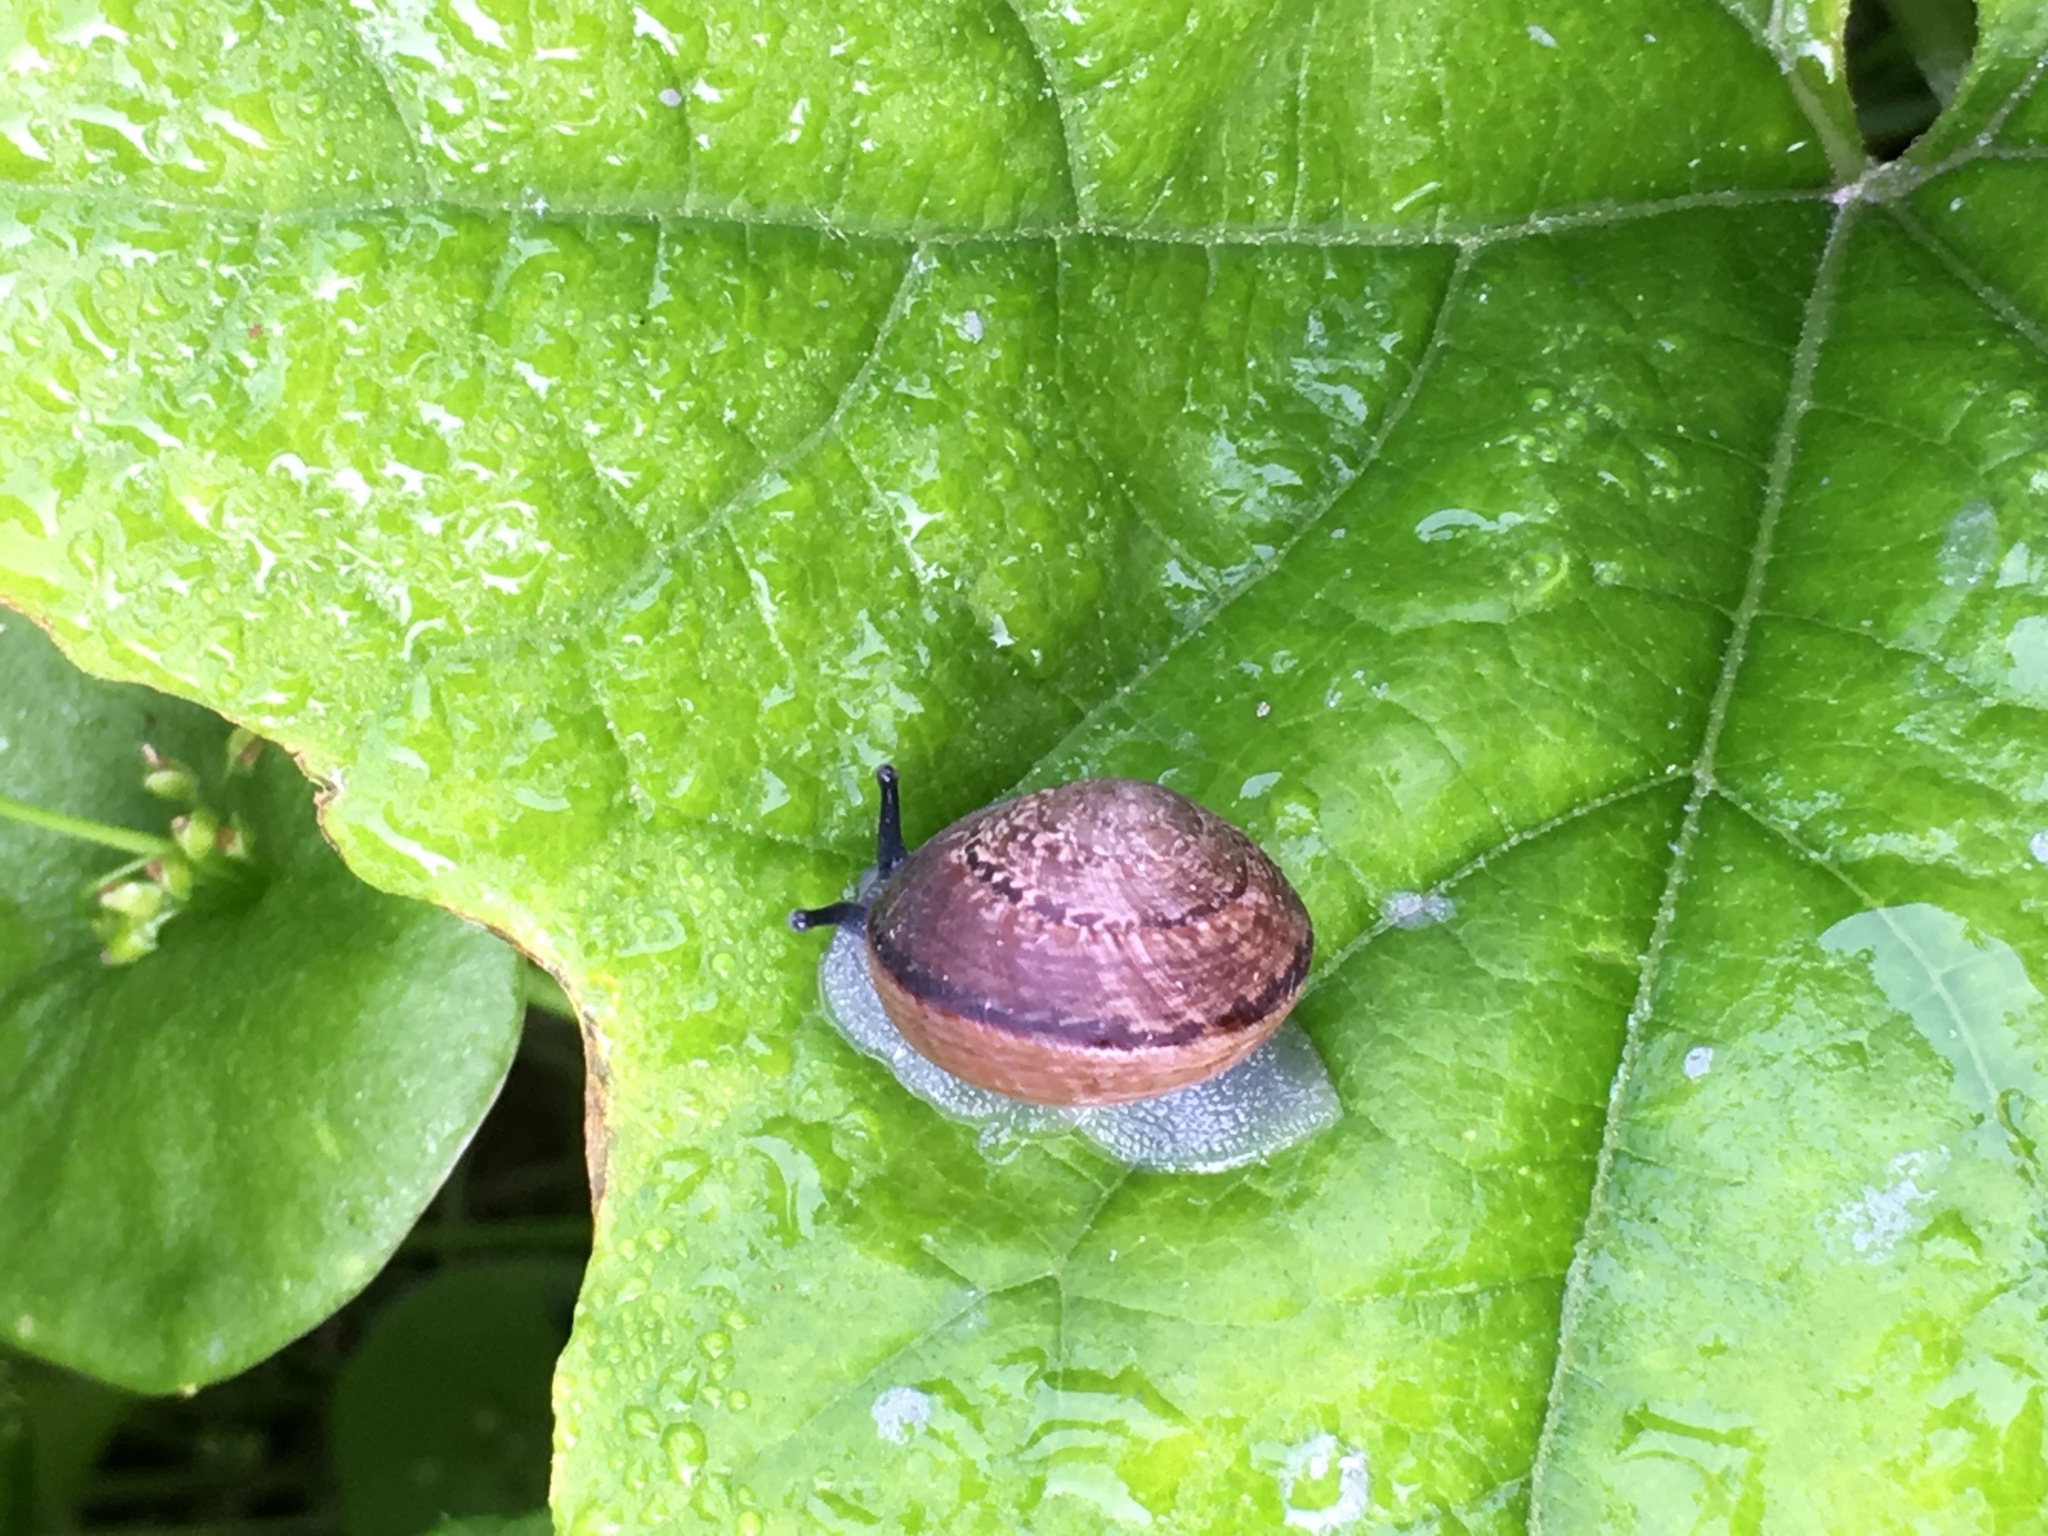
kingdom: Animalia
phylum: Mollusca
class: Gastropoda
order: Stylommatophora
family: Xanthonychidae
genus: Xerarionta
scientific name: Xerarionta tryoni
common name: Bicolor cactus snail
